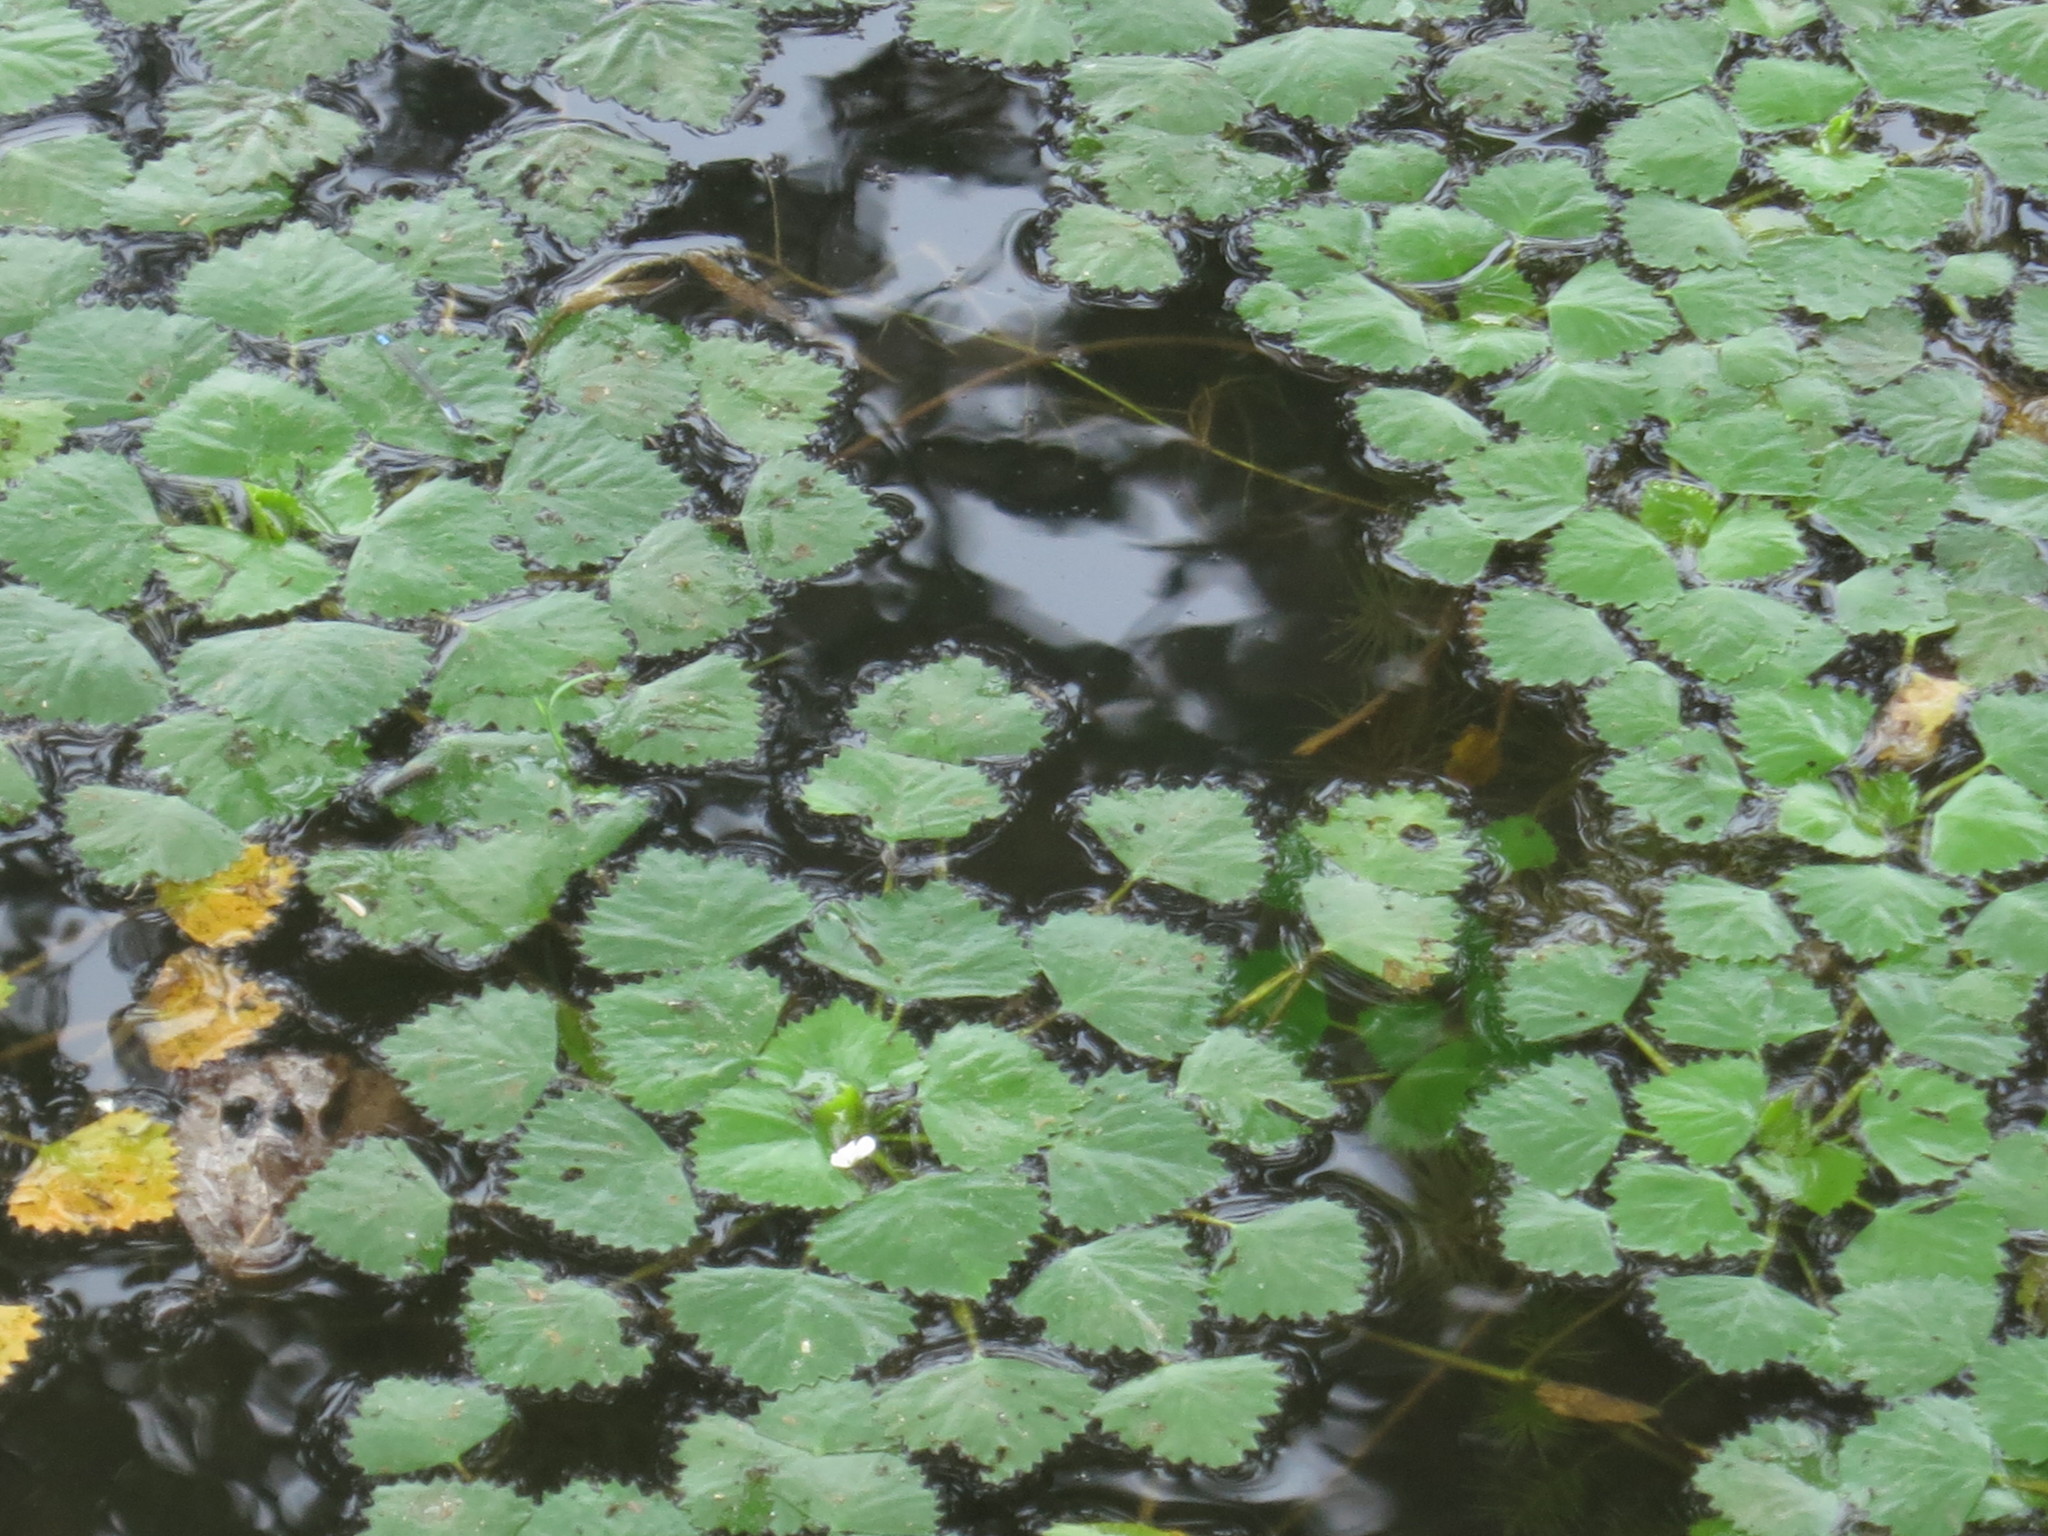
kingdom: Plantae
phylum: Tracheophyta
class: Magnoliopsida
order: Myrtales
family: Lythraceae
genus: Trapa
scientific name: Trapa natans
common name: Water chestnut
